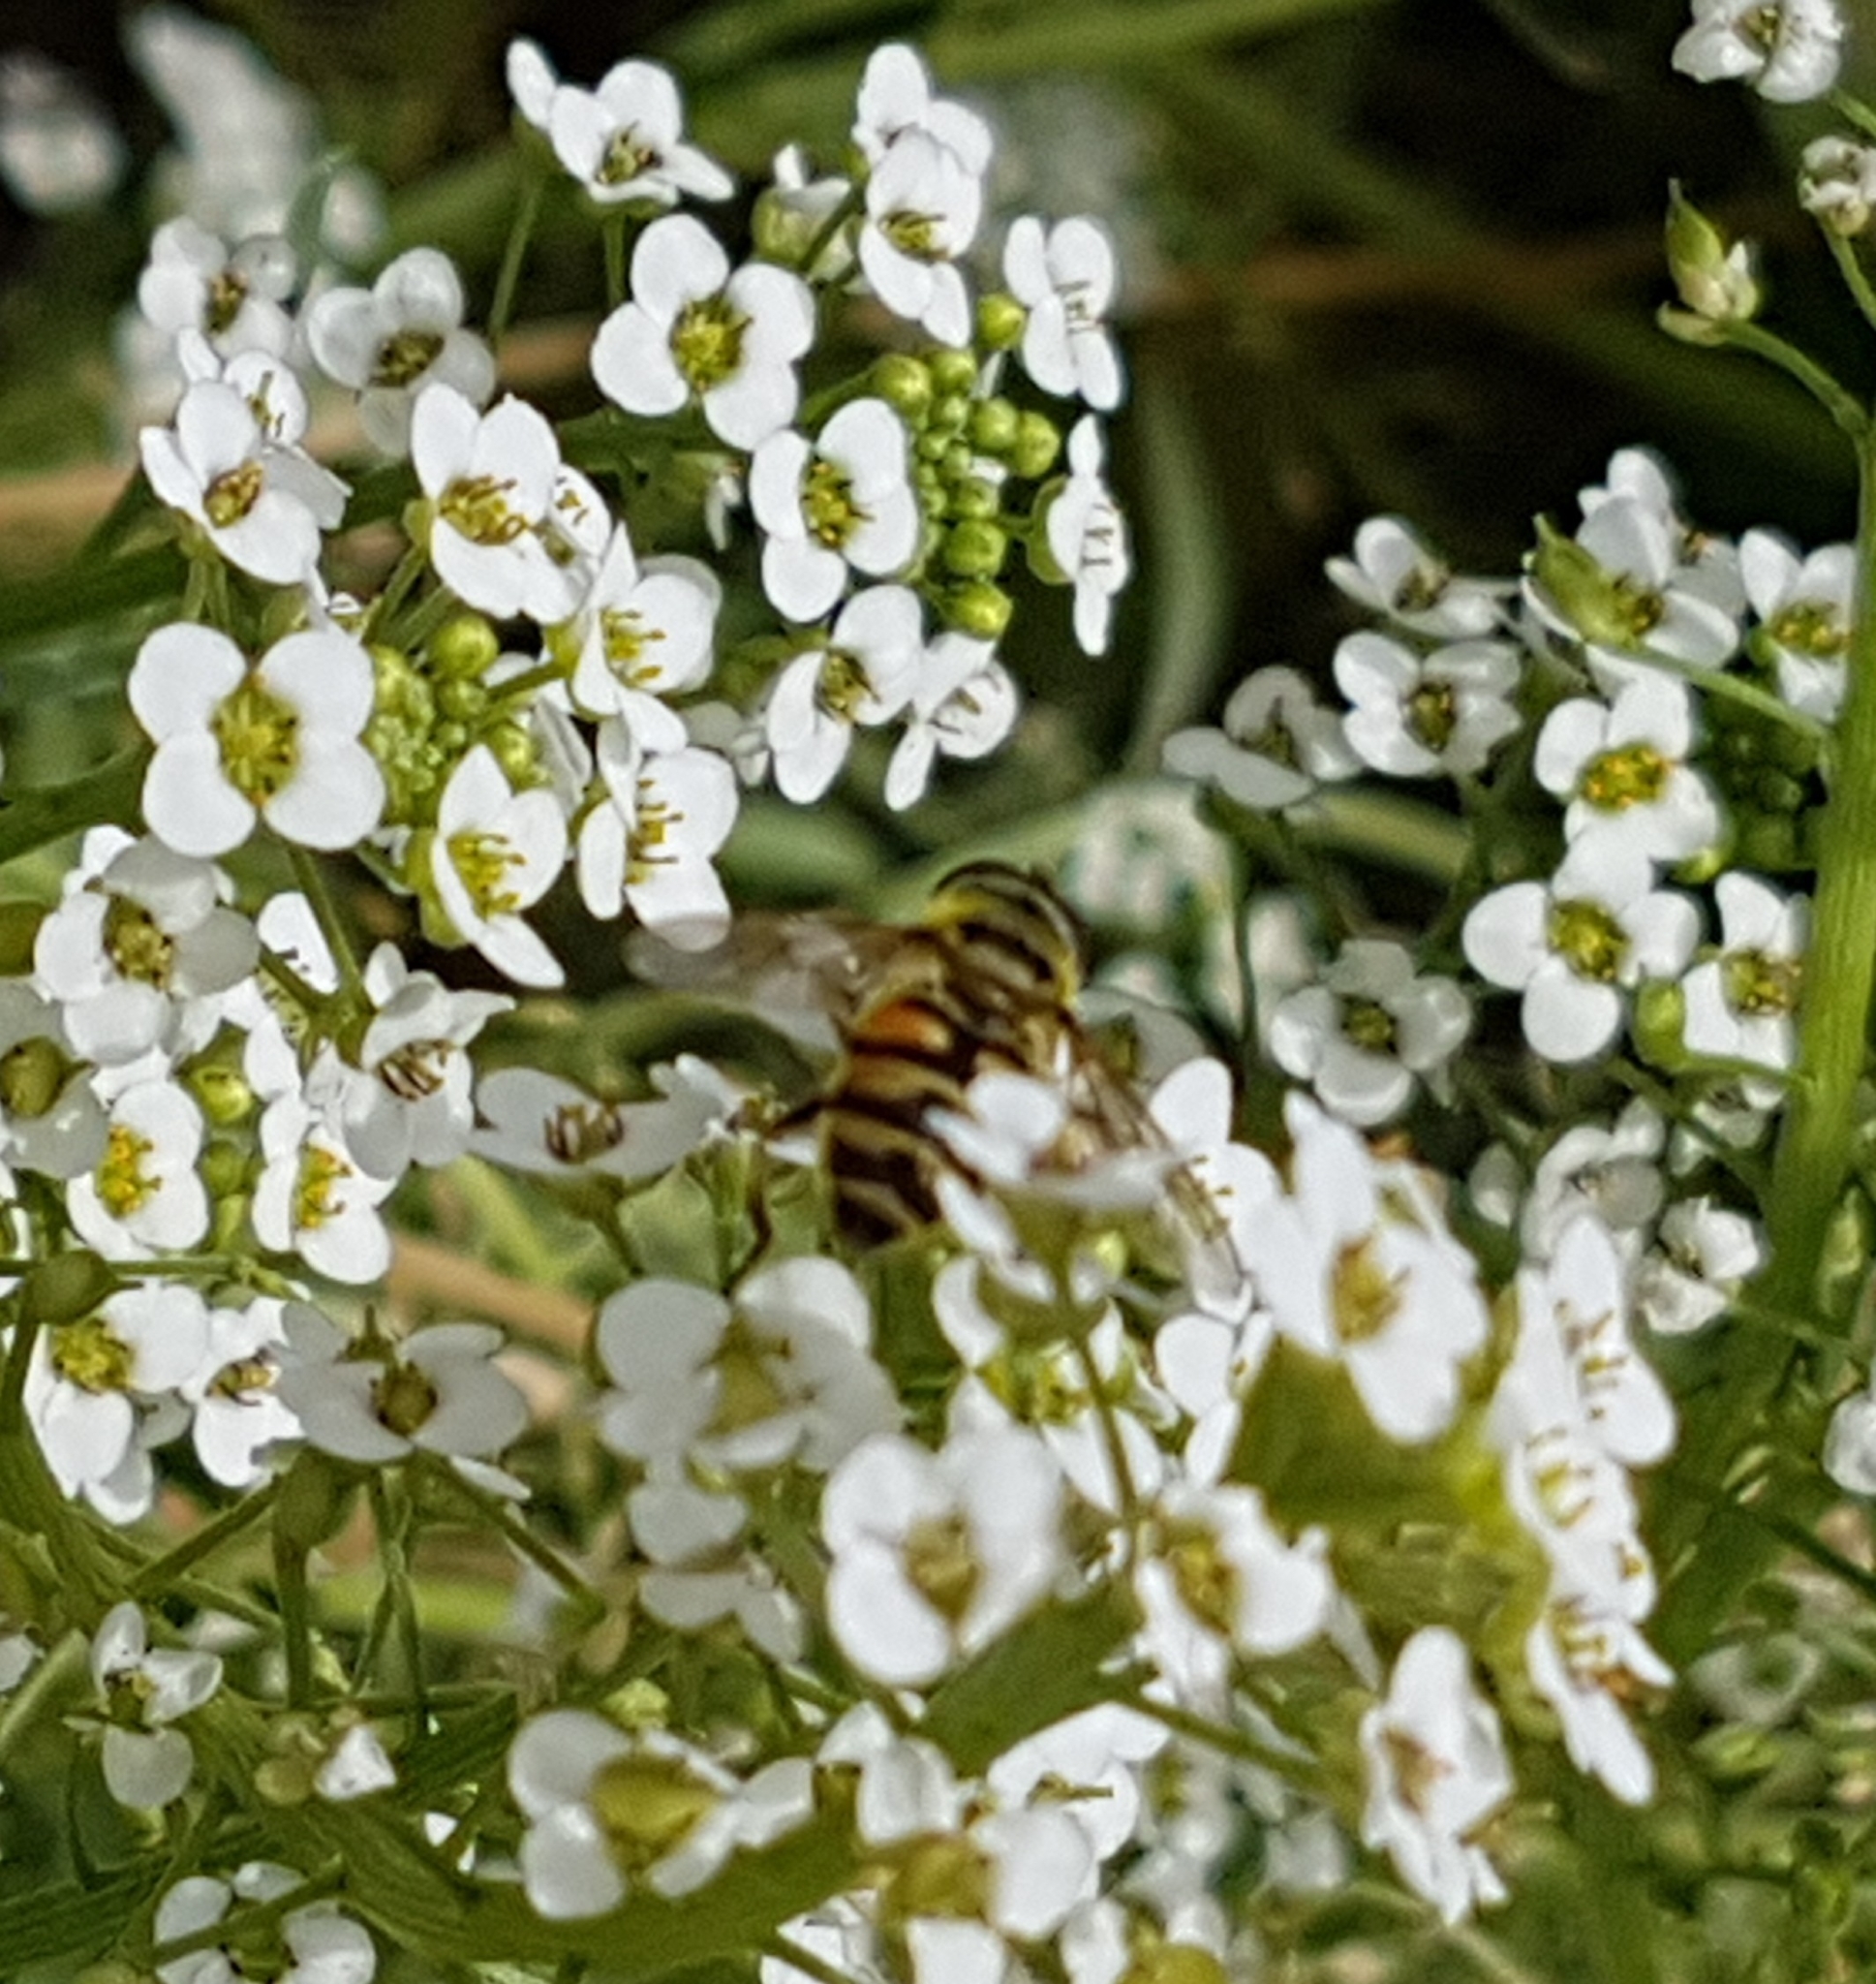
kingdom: Animalia
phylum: Arthropoda
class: Insecta
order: Diptera
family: Syrphidae
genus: Myathropa
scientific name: Myathropa florea
